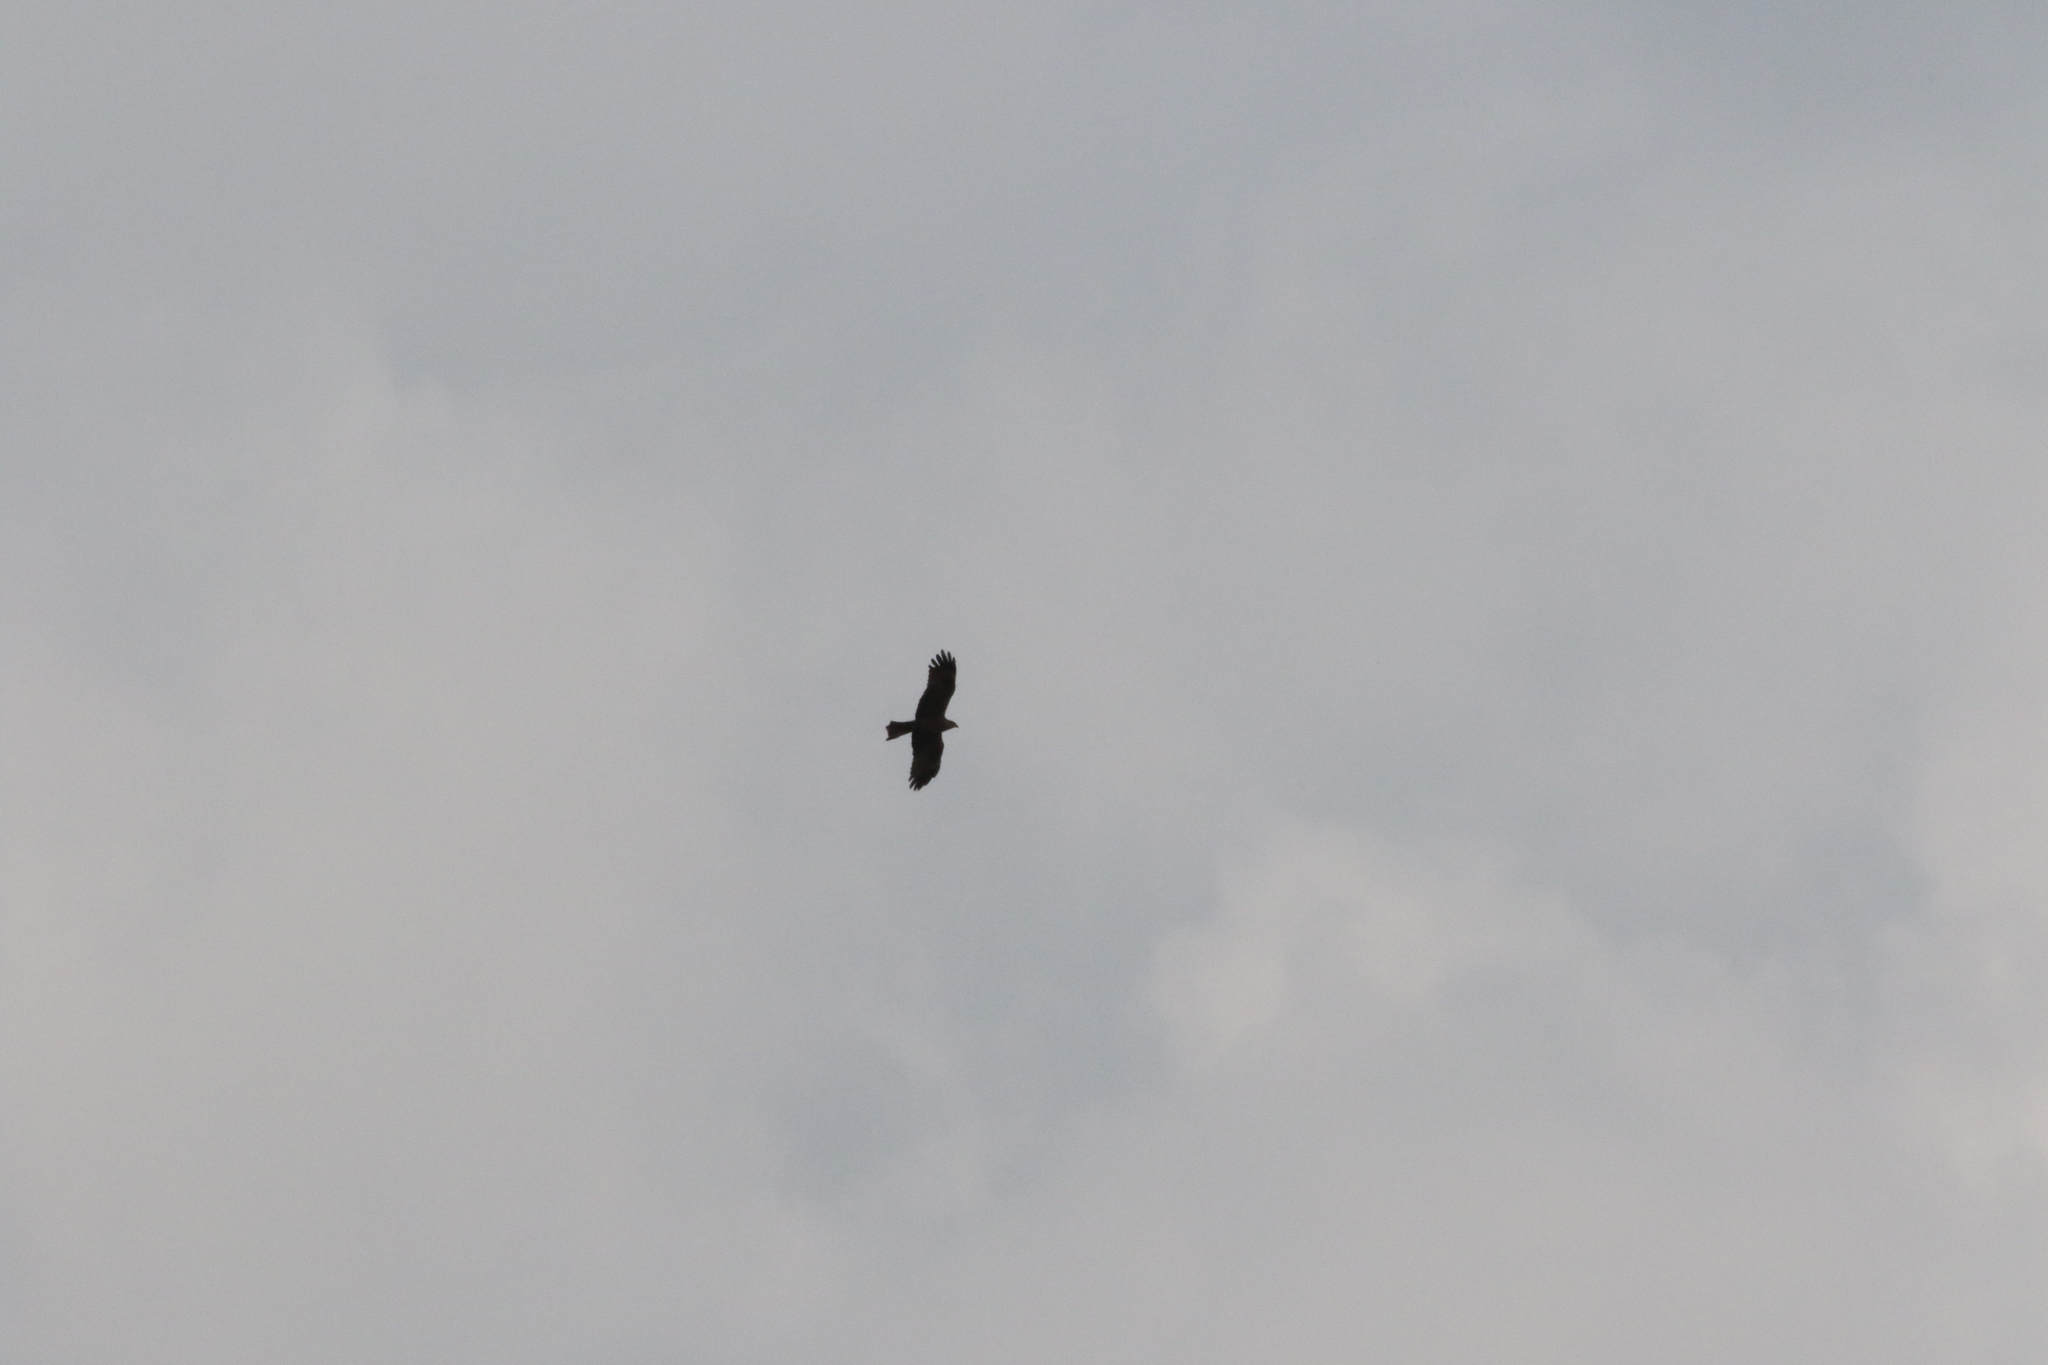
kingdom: Animalia
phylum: Chordata
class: Aves
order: Accipitriformes
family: Accipitridae
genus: Milvus
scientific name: Milvus migrans
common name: Black kite
